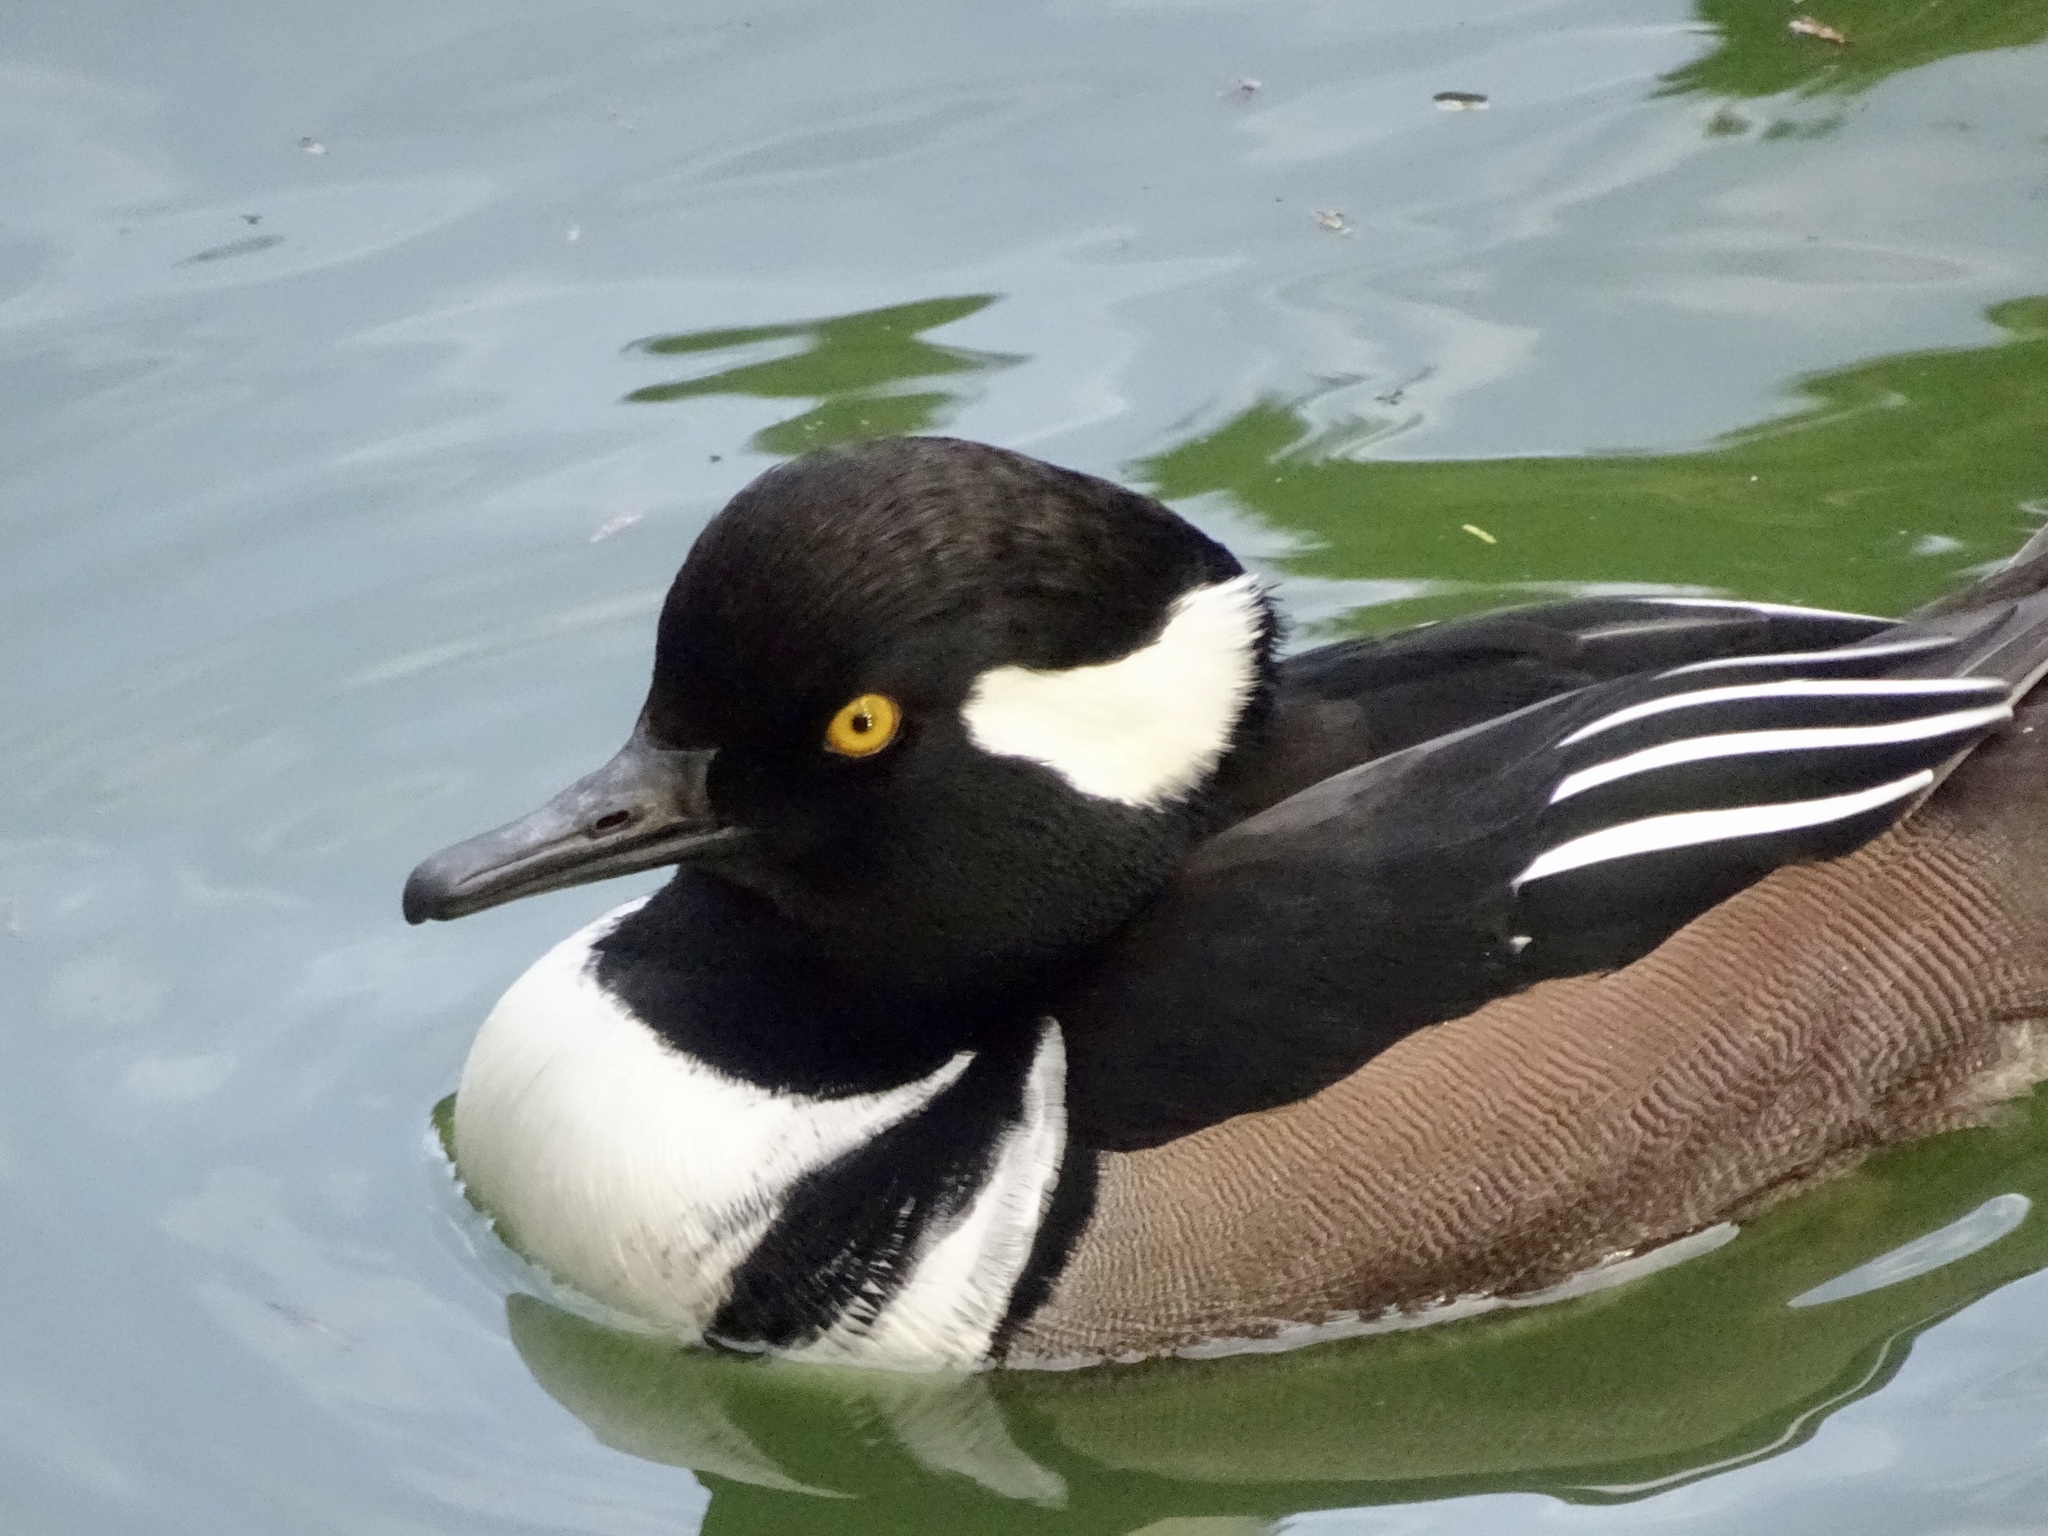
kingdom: Animalia
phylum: Chordata
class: Aves
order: Anseriformes
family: Anatidae
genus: Lophodytes
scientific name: Lophodytes cucullatus
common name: Hooded merganser
